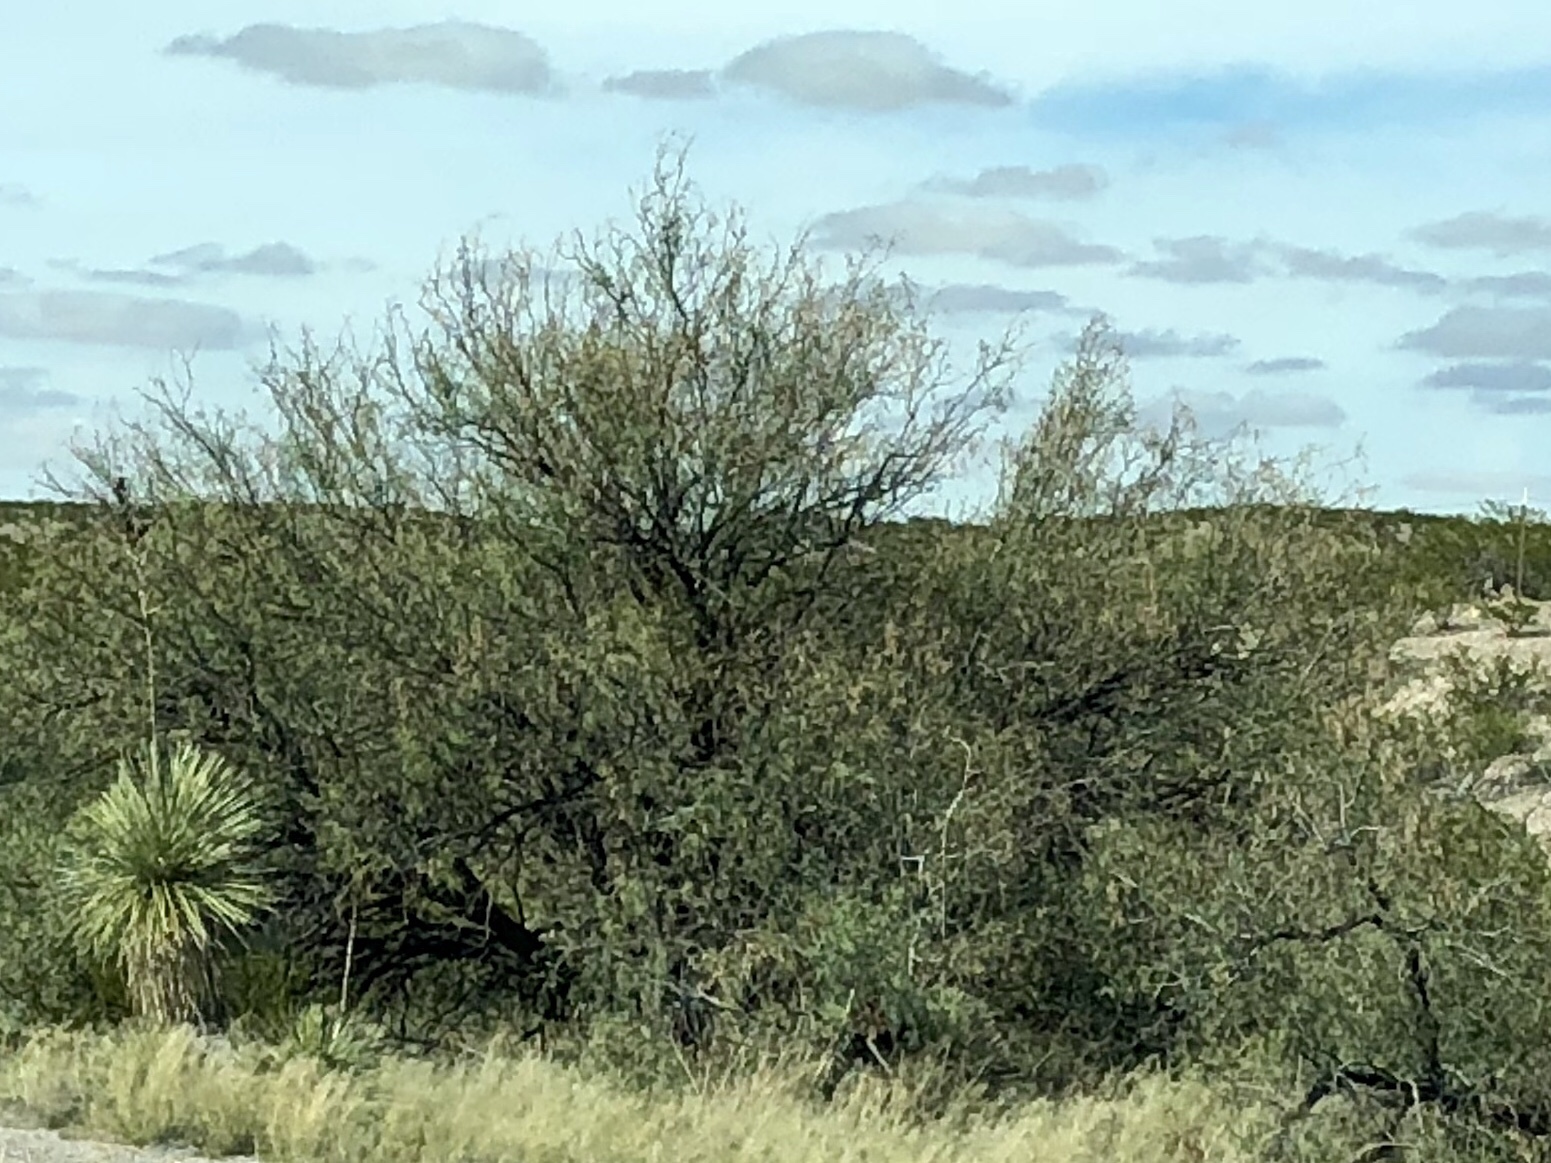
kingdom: Plantae
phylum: Tracheophyta
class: Magnoliopsida
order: Fabales
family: Fabaceae
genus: Prosopis
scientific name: Prosopis glandulosa
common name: Honey mesquite
